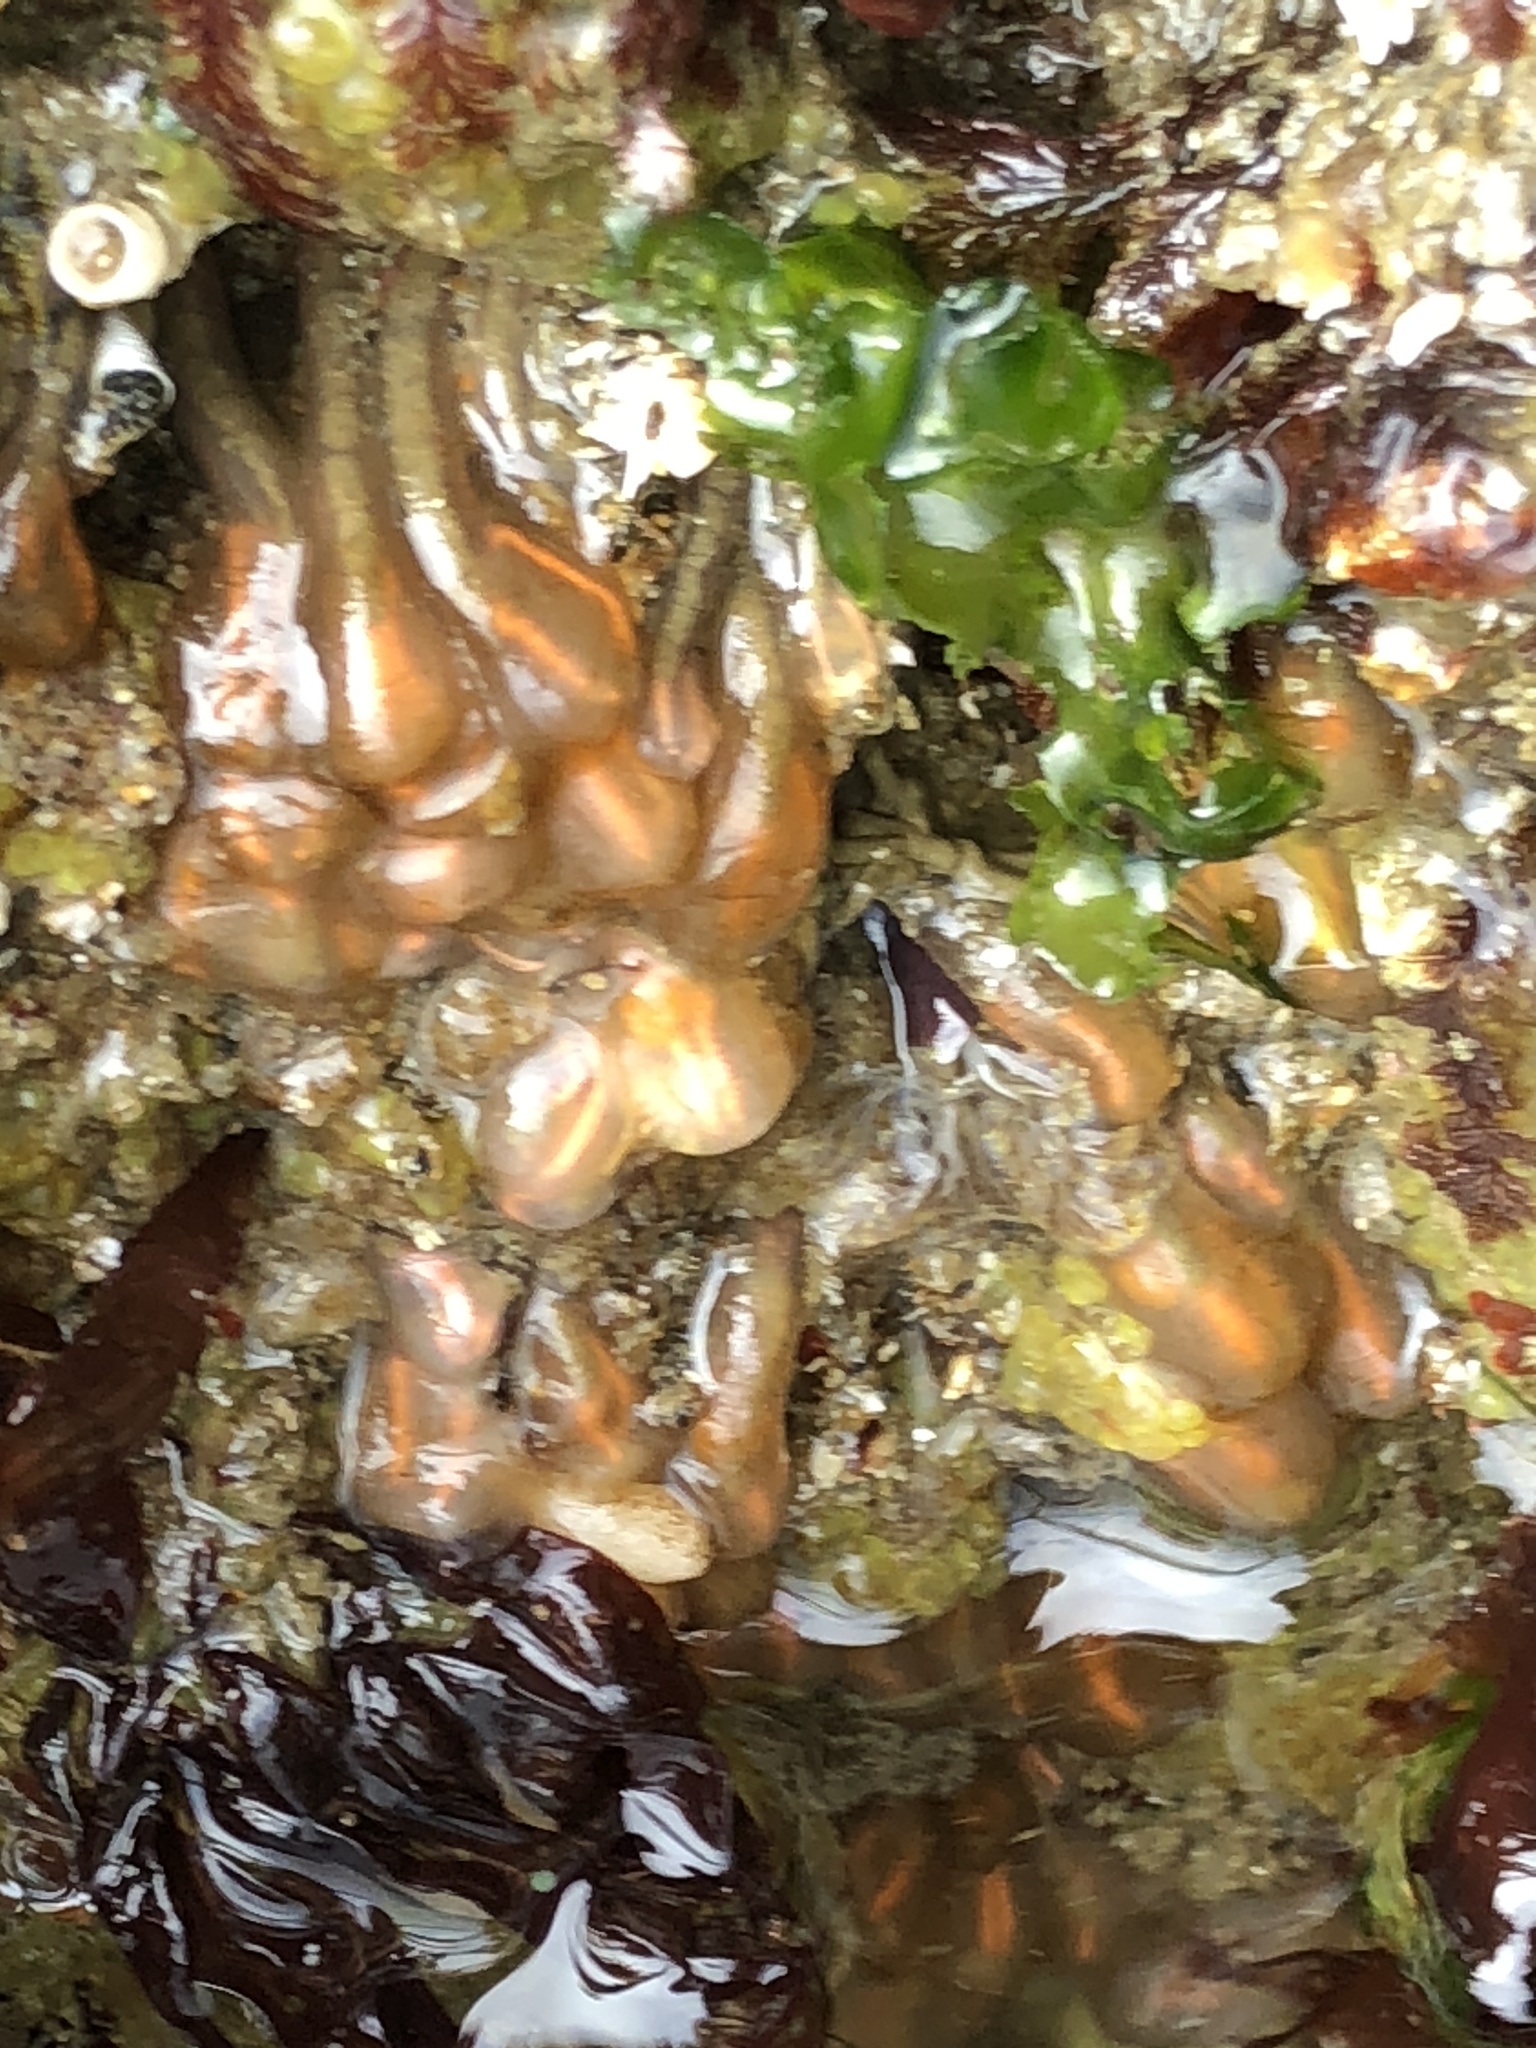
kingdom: Animalia
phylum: Chordata
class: Ascidiacea
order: Aplousobranchia
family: Clavelinidae
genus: Clavelina
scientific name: Clavelina huntsmani
